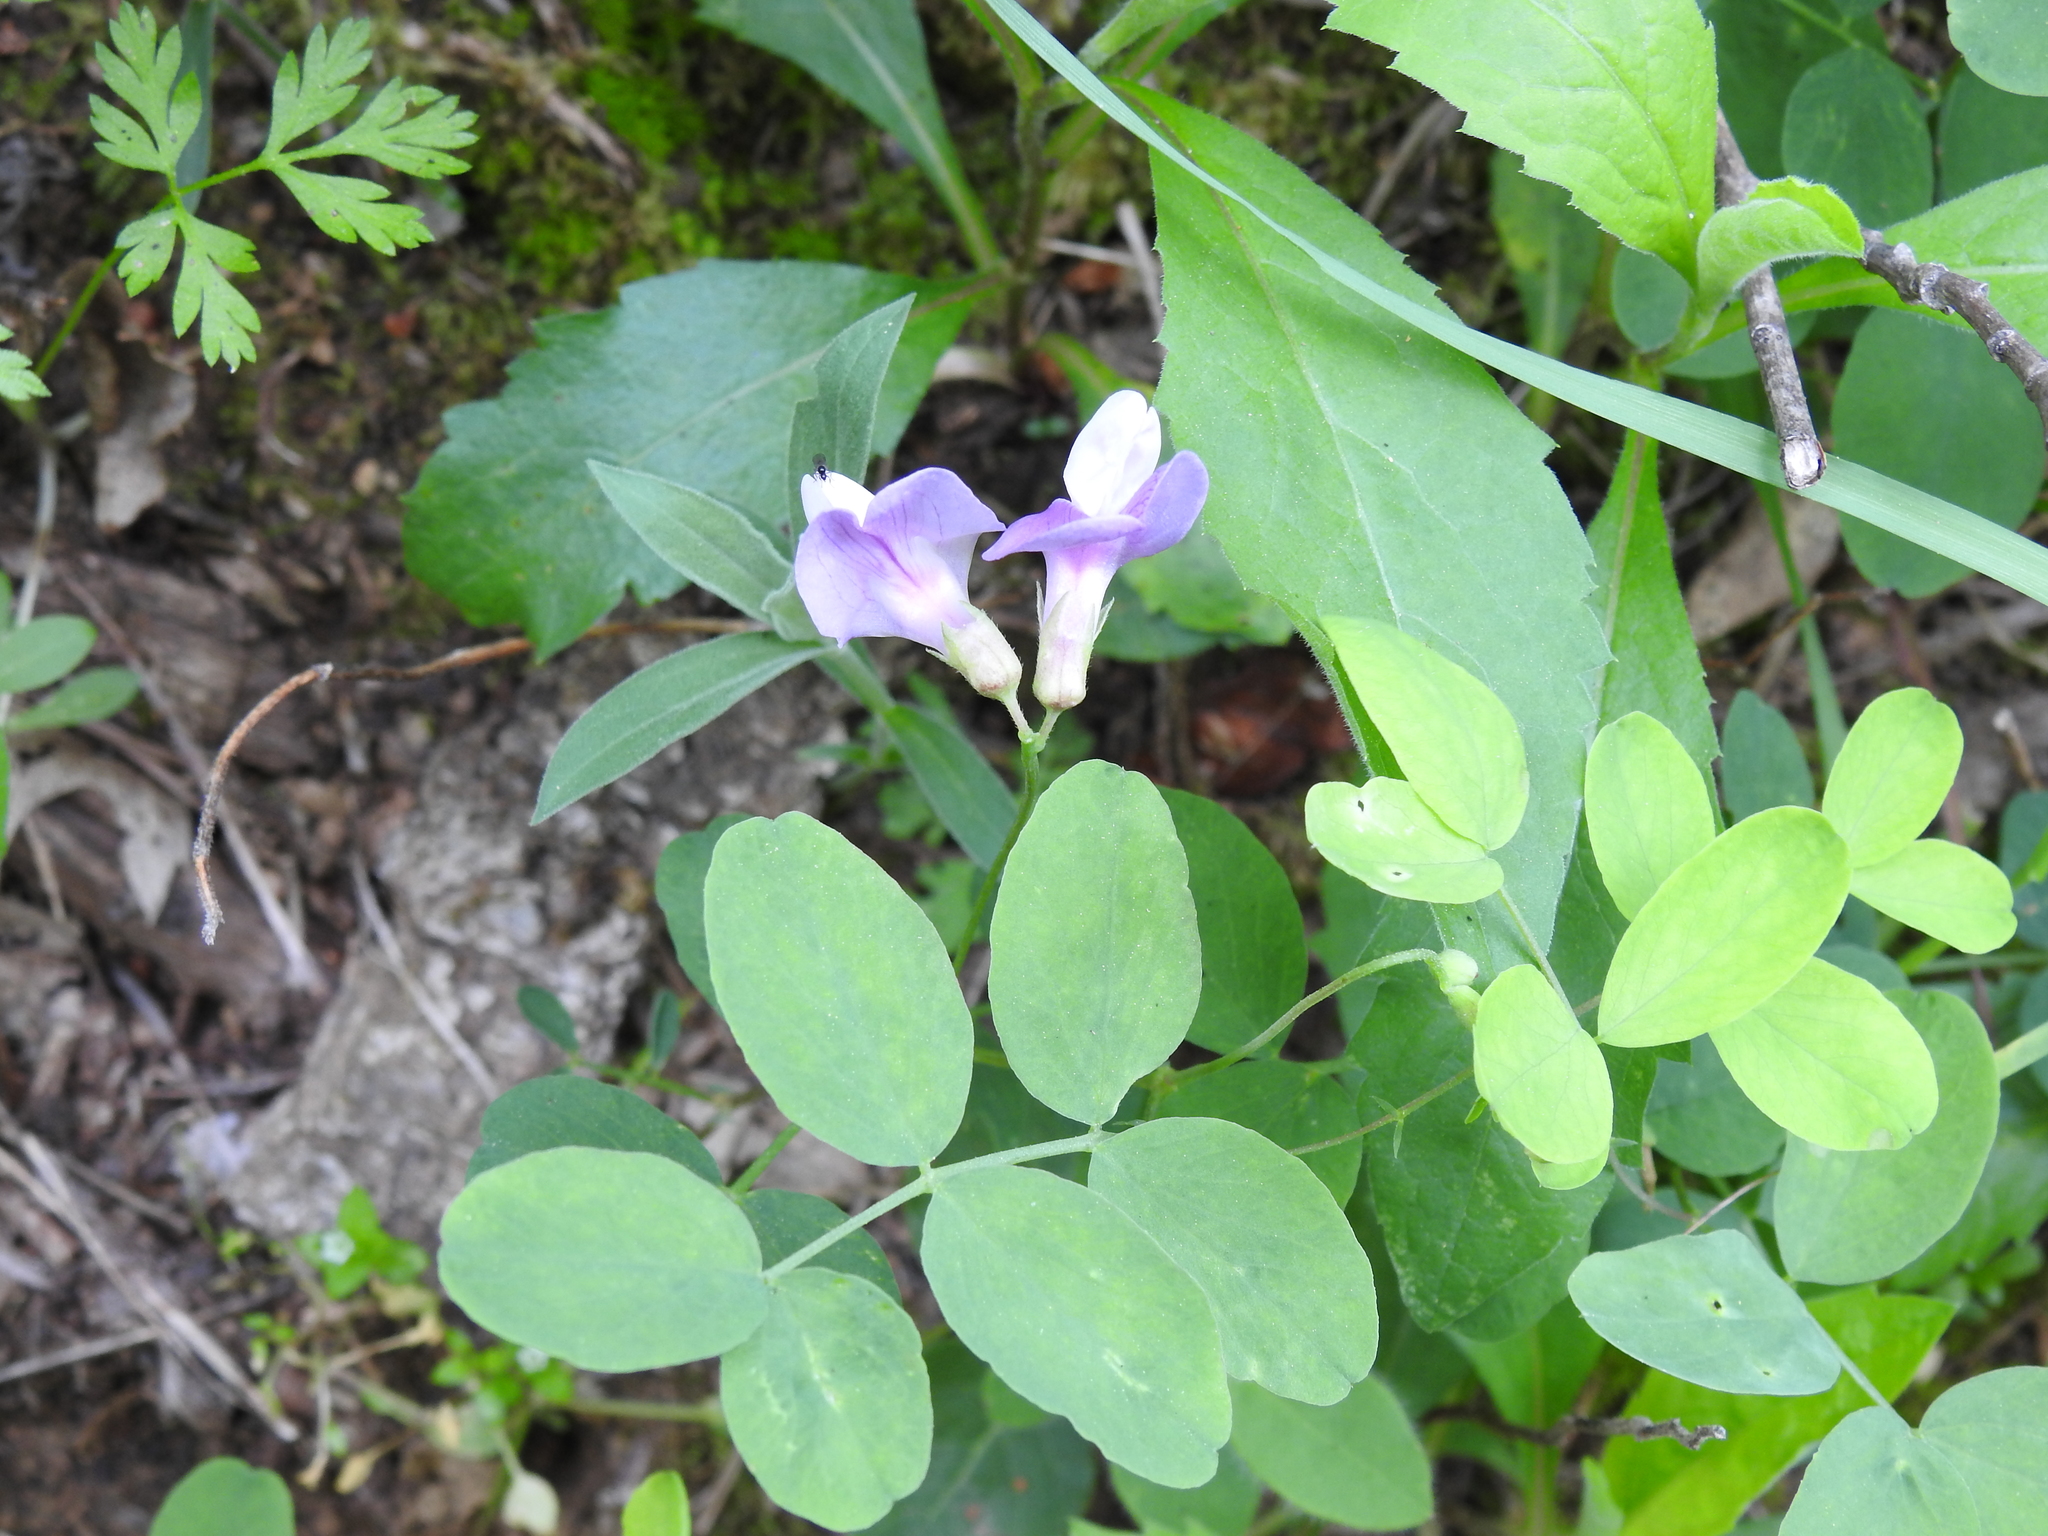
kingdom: Plantae
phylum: Tracheophyta
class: Magnoliopsida
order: Fabales
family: Fabaceae
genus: Lathyrus
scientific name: Lathyrus nevadensis
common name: Sierra nevada peavine
